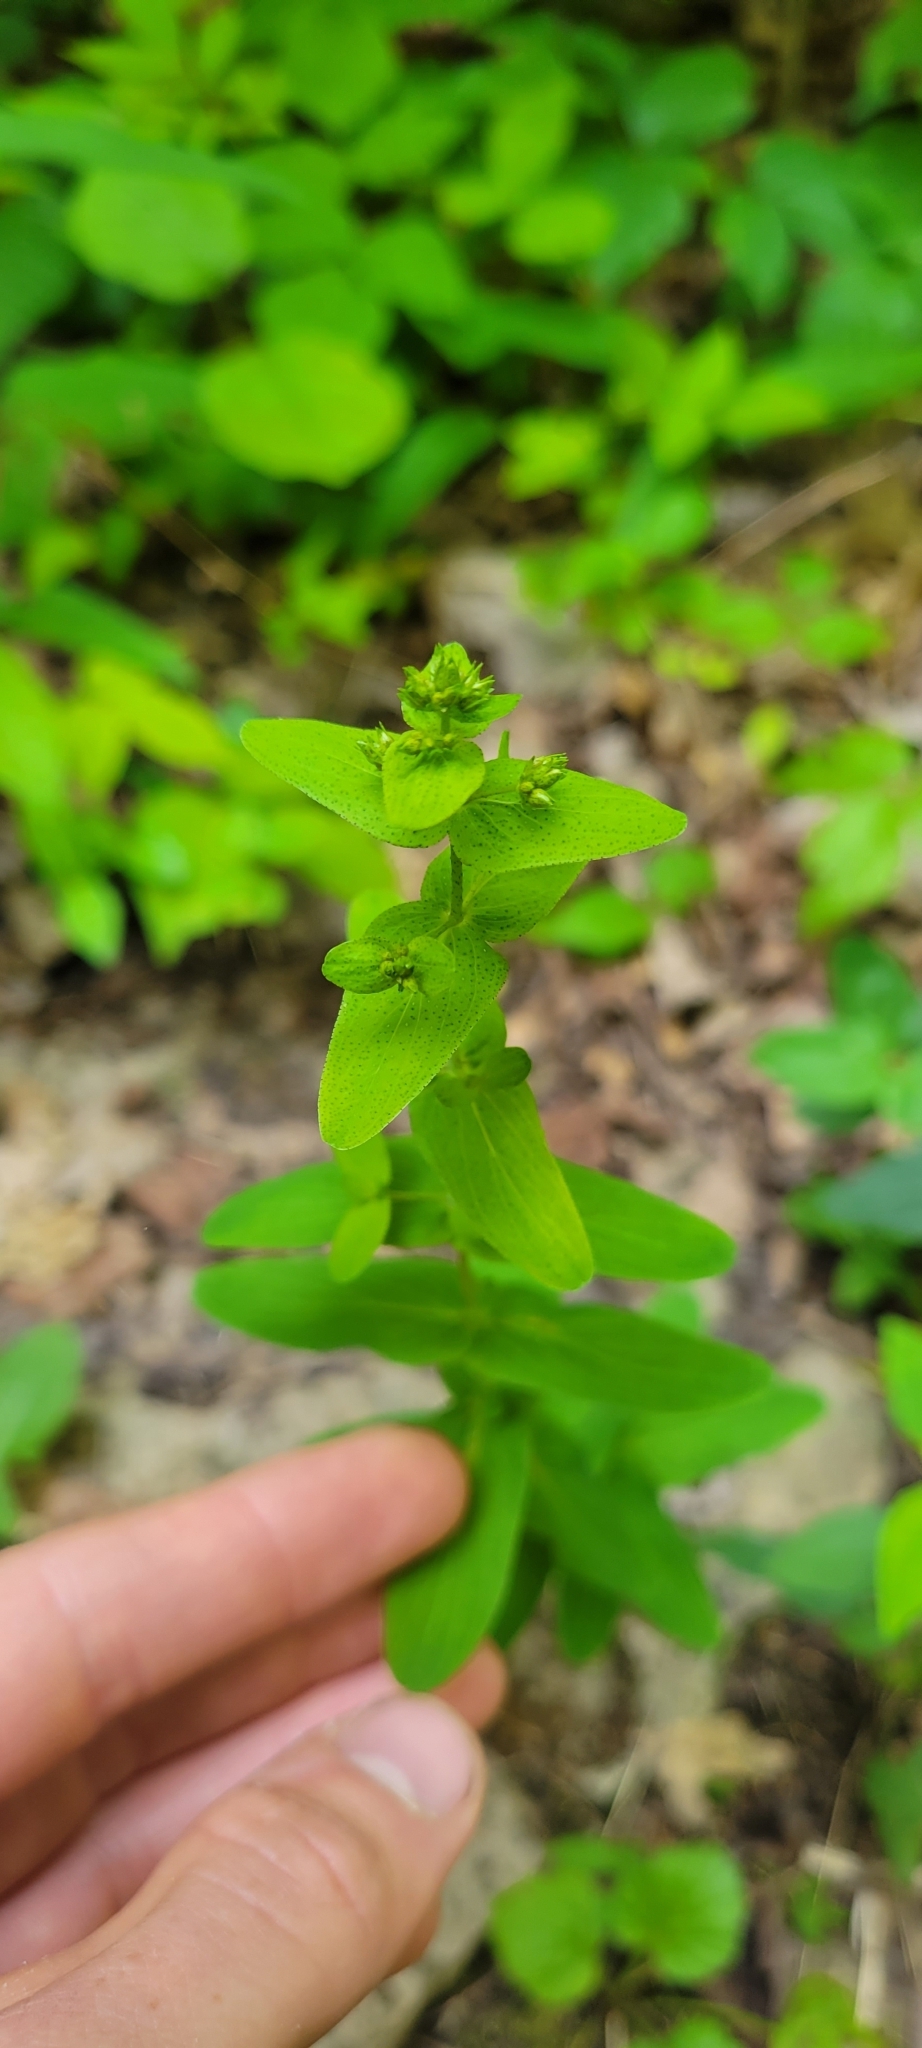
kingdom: Plantae
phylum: Tracheophyta
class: Magnoliopsida
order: Malpighiales
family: Hypericaceae
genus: Hypericum
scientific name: Hypericum punctatum
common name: Spotted st. john's-wort
